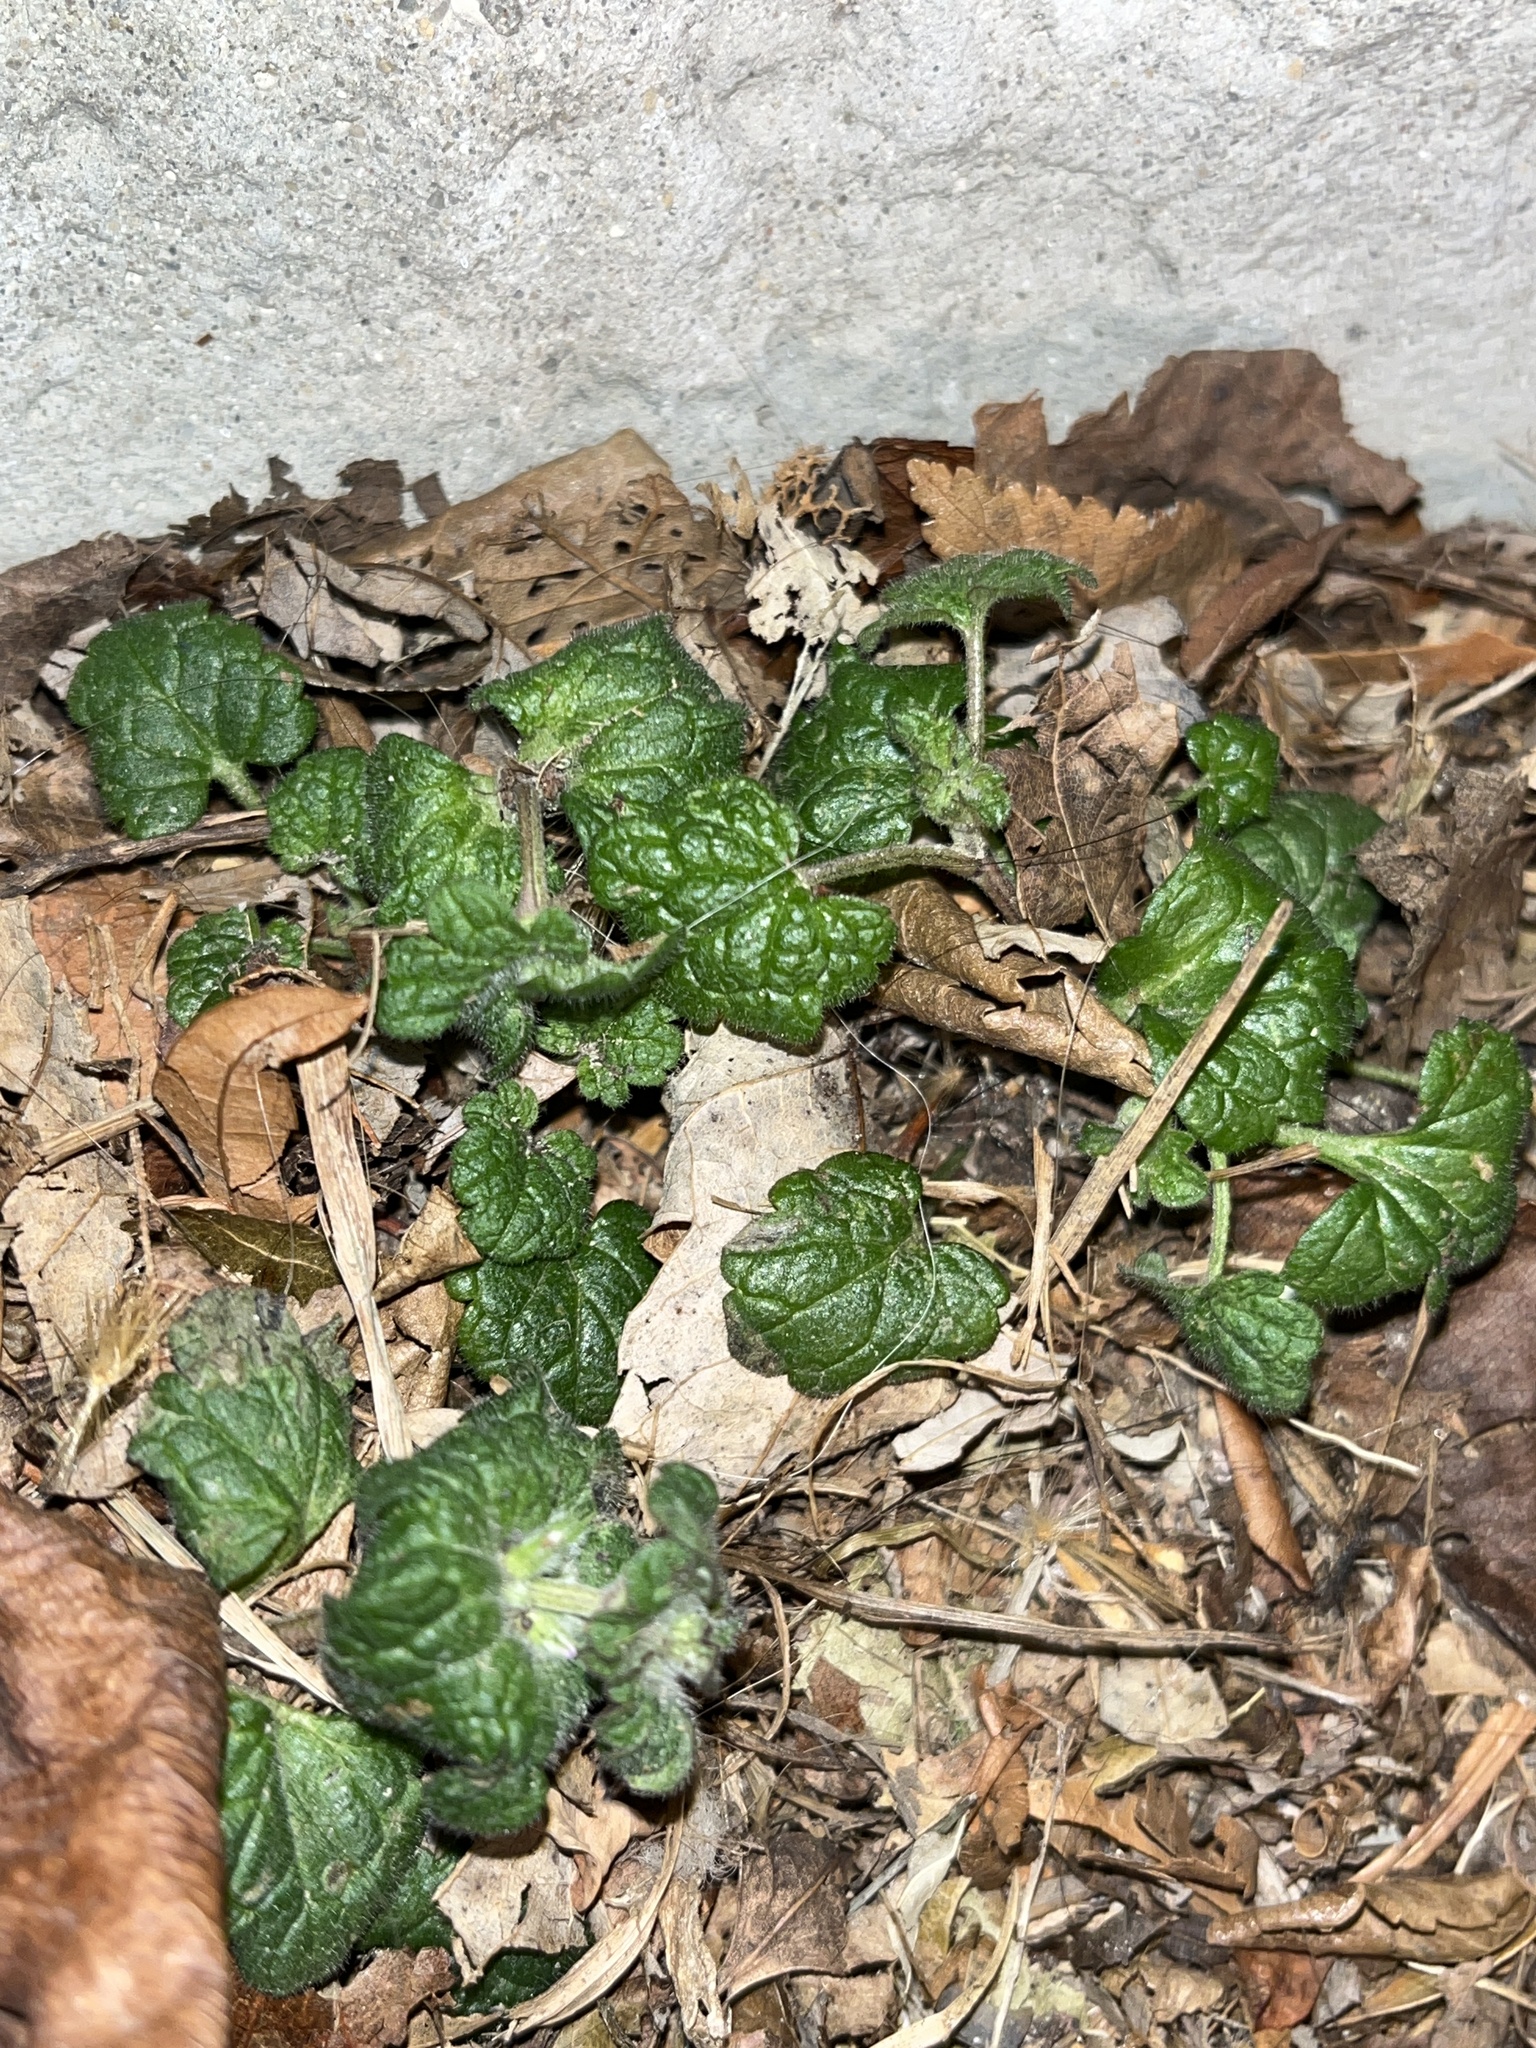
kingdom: Plantae
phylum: Tracheophyta
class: Magnoliopsida
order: Lamiales
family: Lamiaceae
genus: Glechoma
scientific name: Glechoma hederacea
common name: Ground ivy
